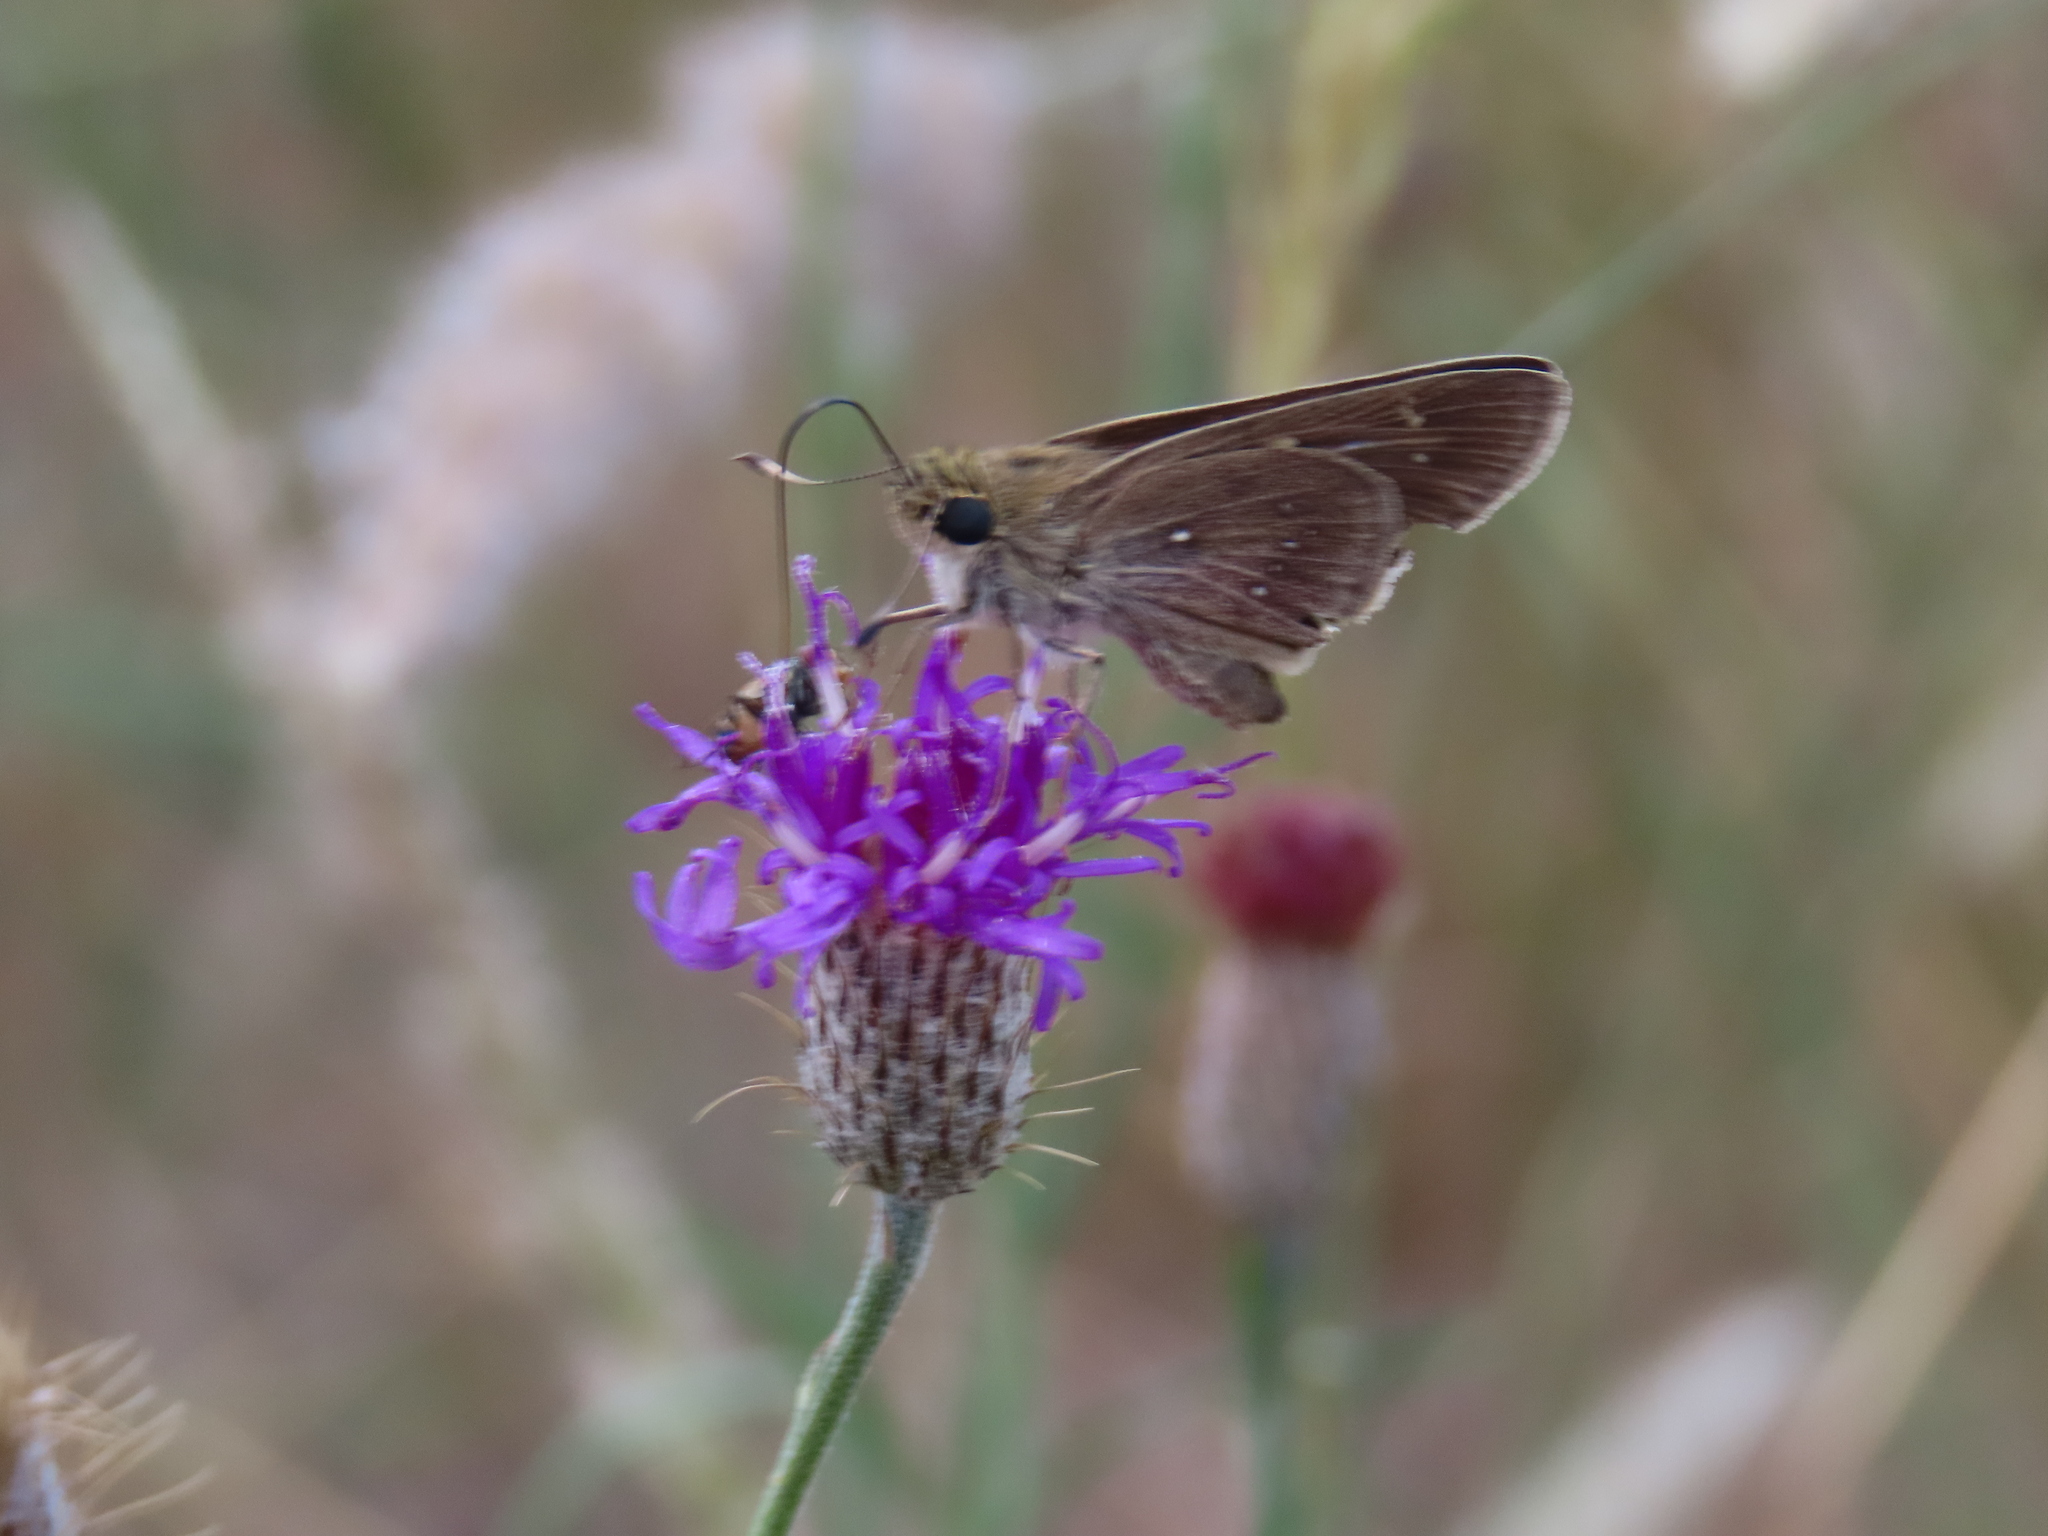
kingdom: Animalia
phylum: Arthropoda
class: Insecta
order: Lepidoptera
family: Hesperiidae
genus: Pelopidas
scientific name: Pelopidas mathias
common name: Black-branded swift
